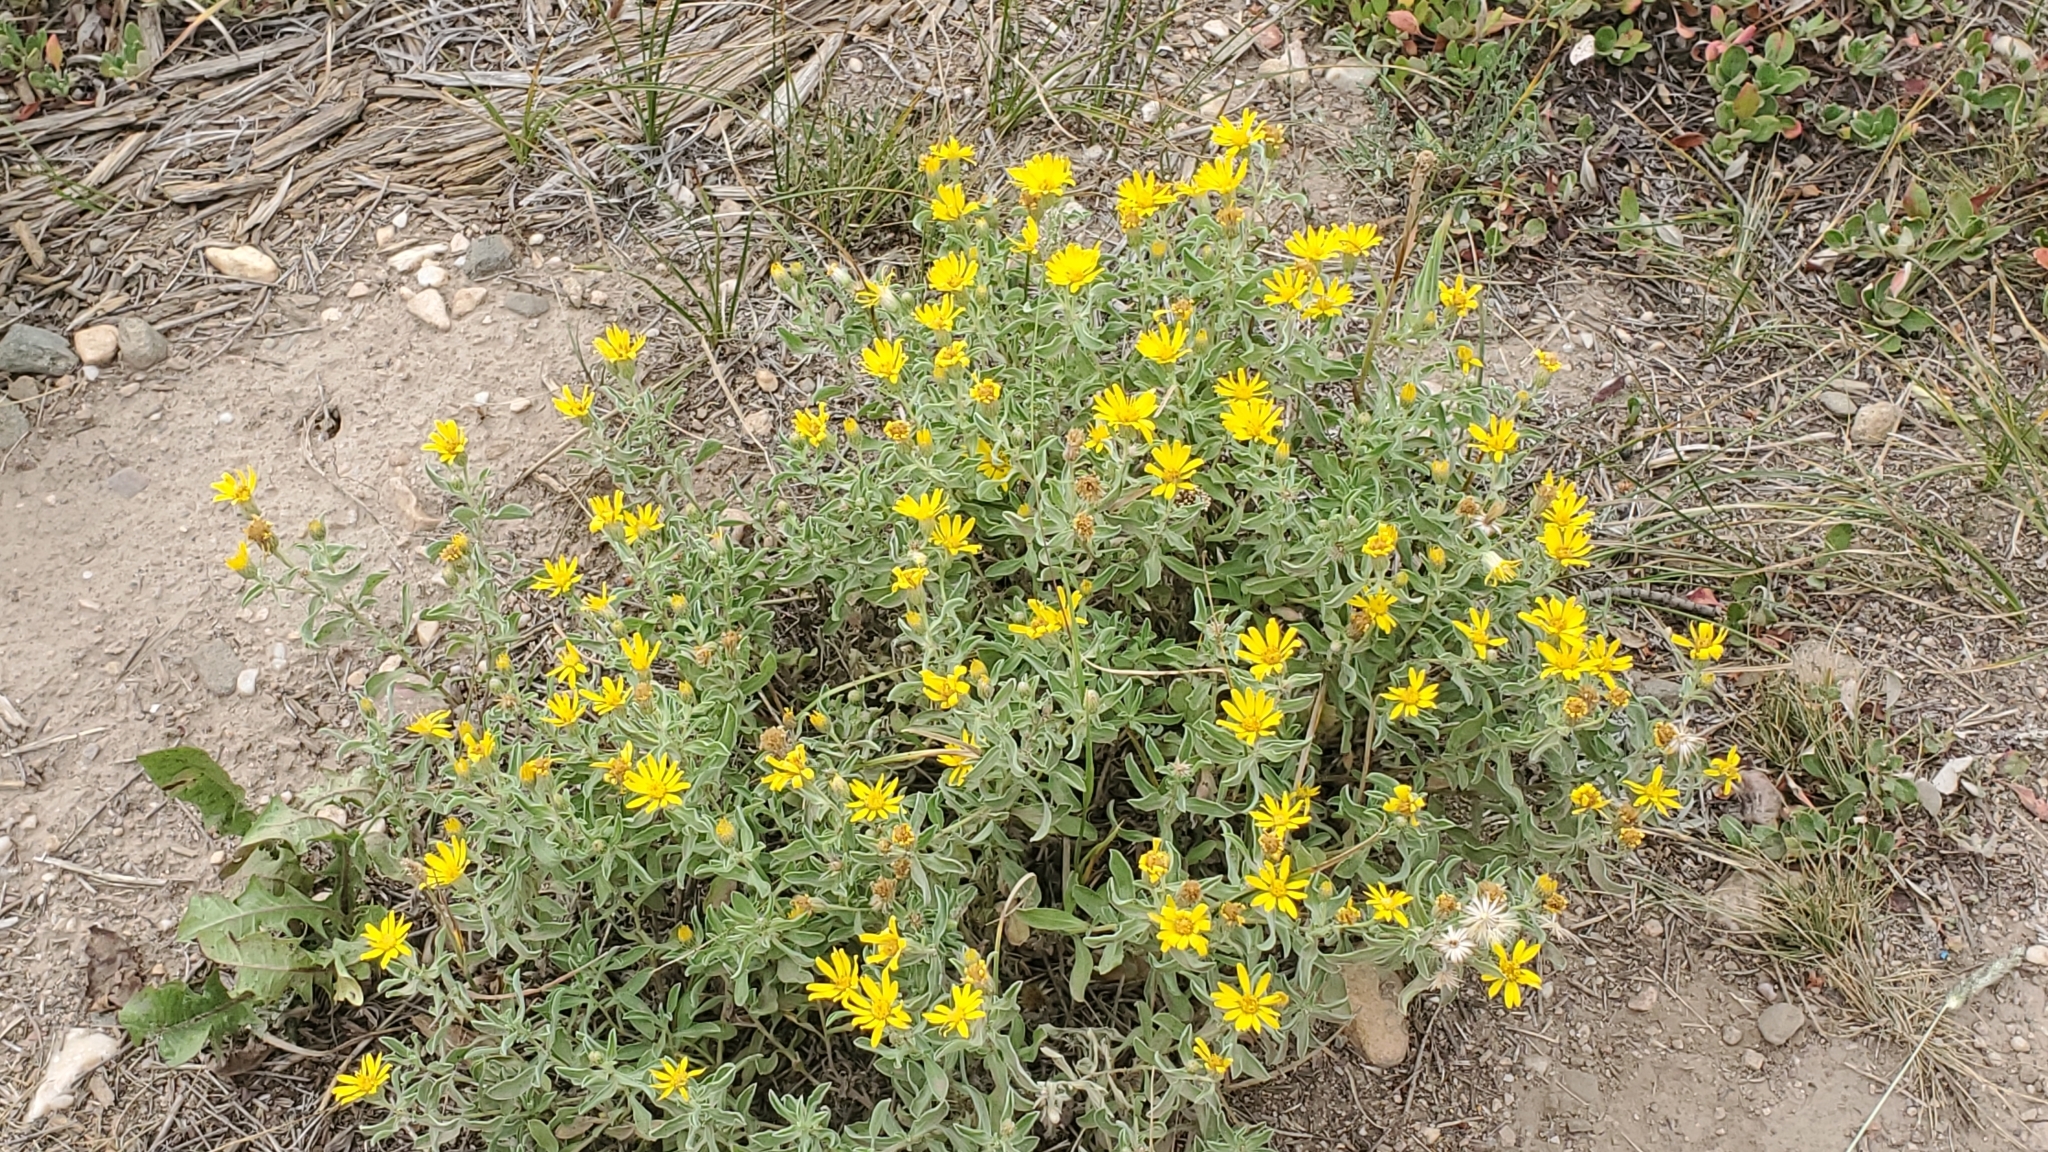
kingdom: Plantae
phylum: Tracheophyta
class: Magnoliopsida
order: Asterales
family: Asteraceae
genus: Heterotheca
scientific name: Heterotheca hartmanii
